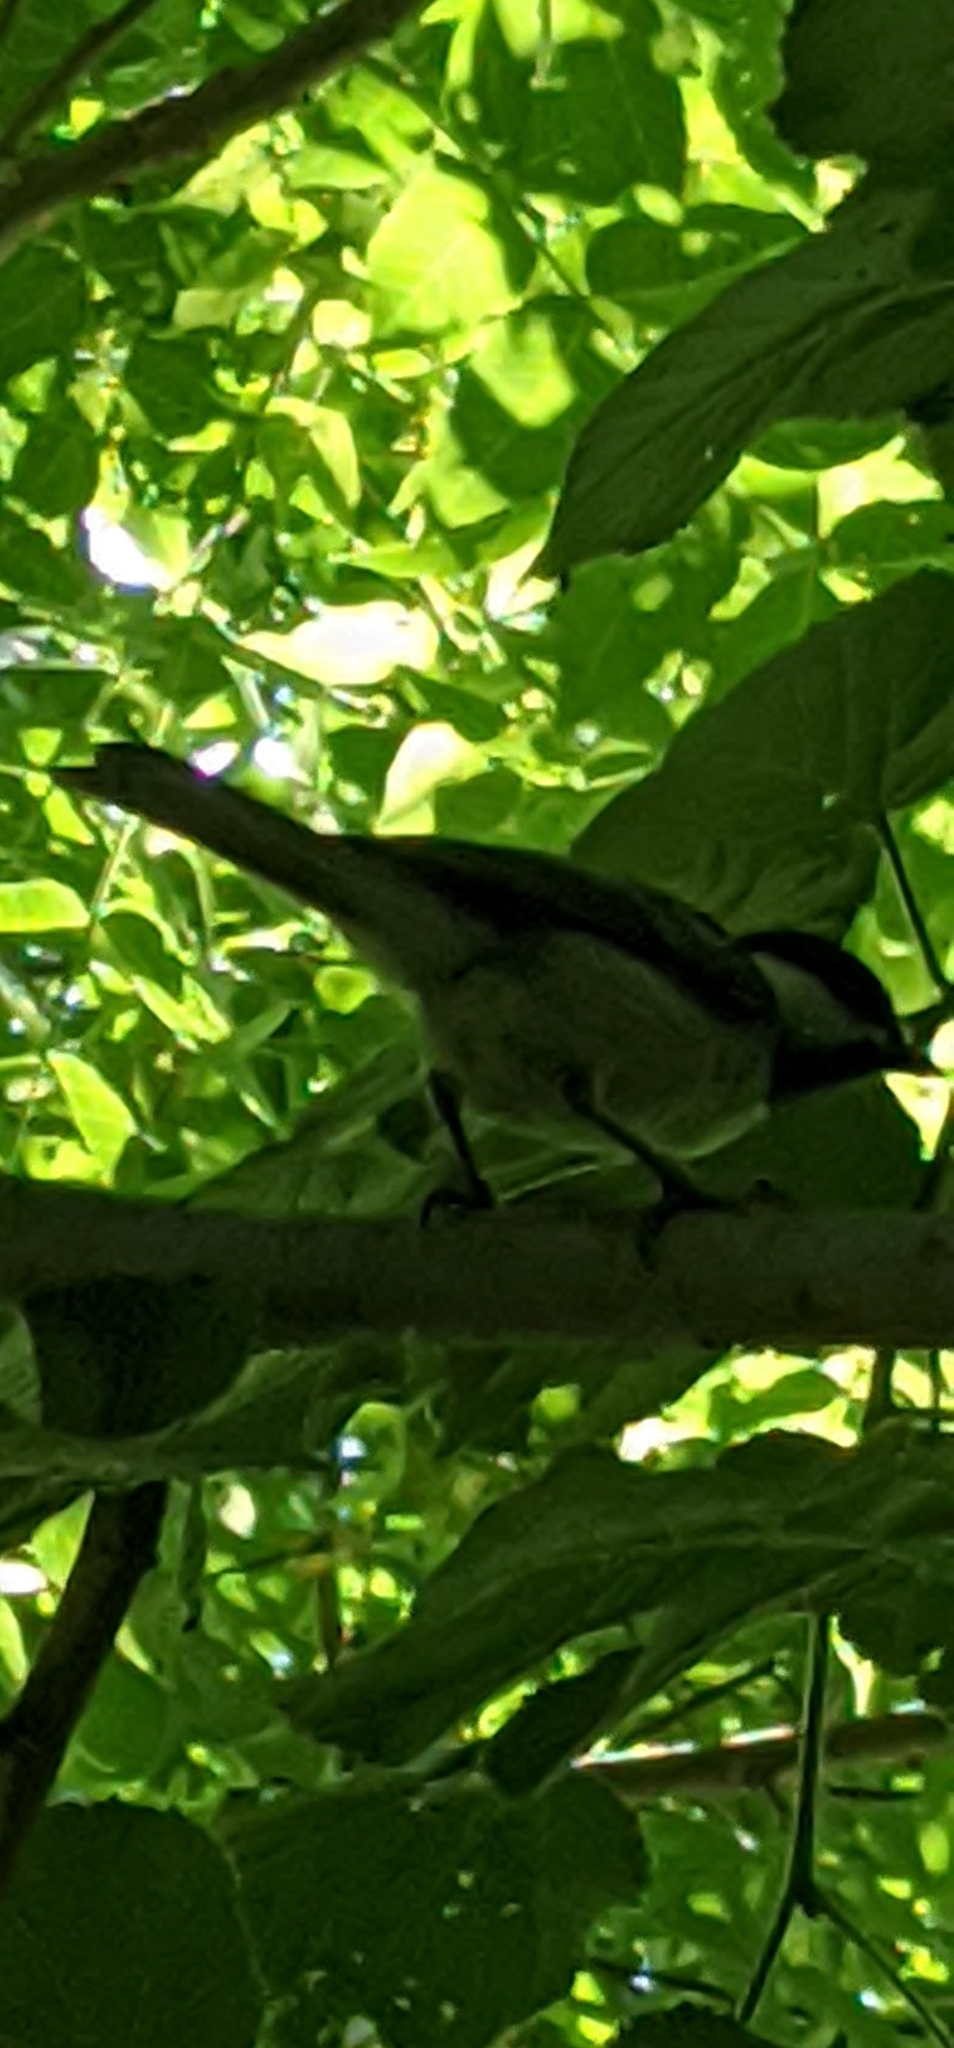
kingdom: Animalia
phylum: Chordata
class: Aves
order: Passeriformes
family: Paridae
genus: Poecile
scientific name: Poecile atricapillus
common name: Black-capped chickadee
